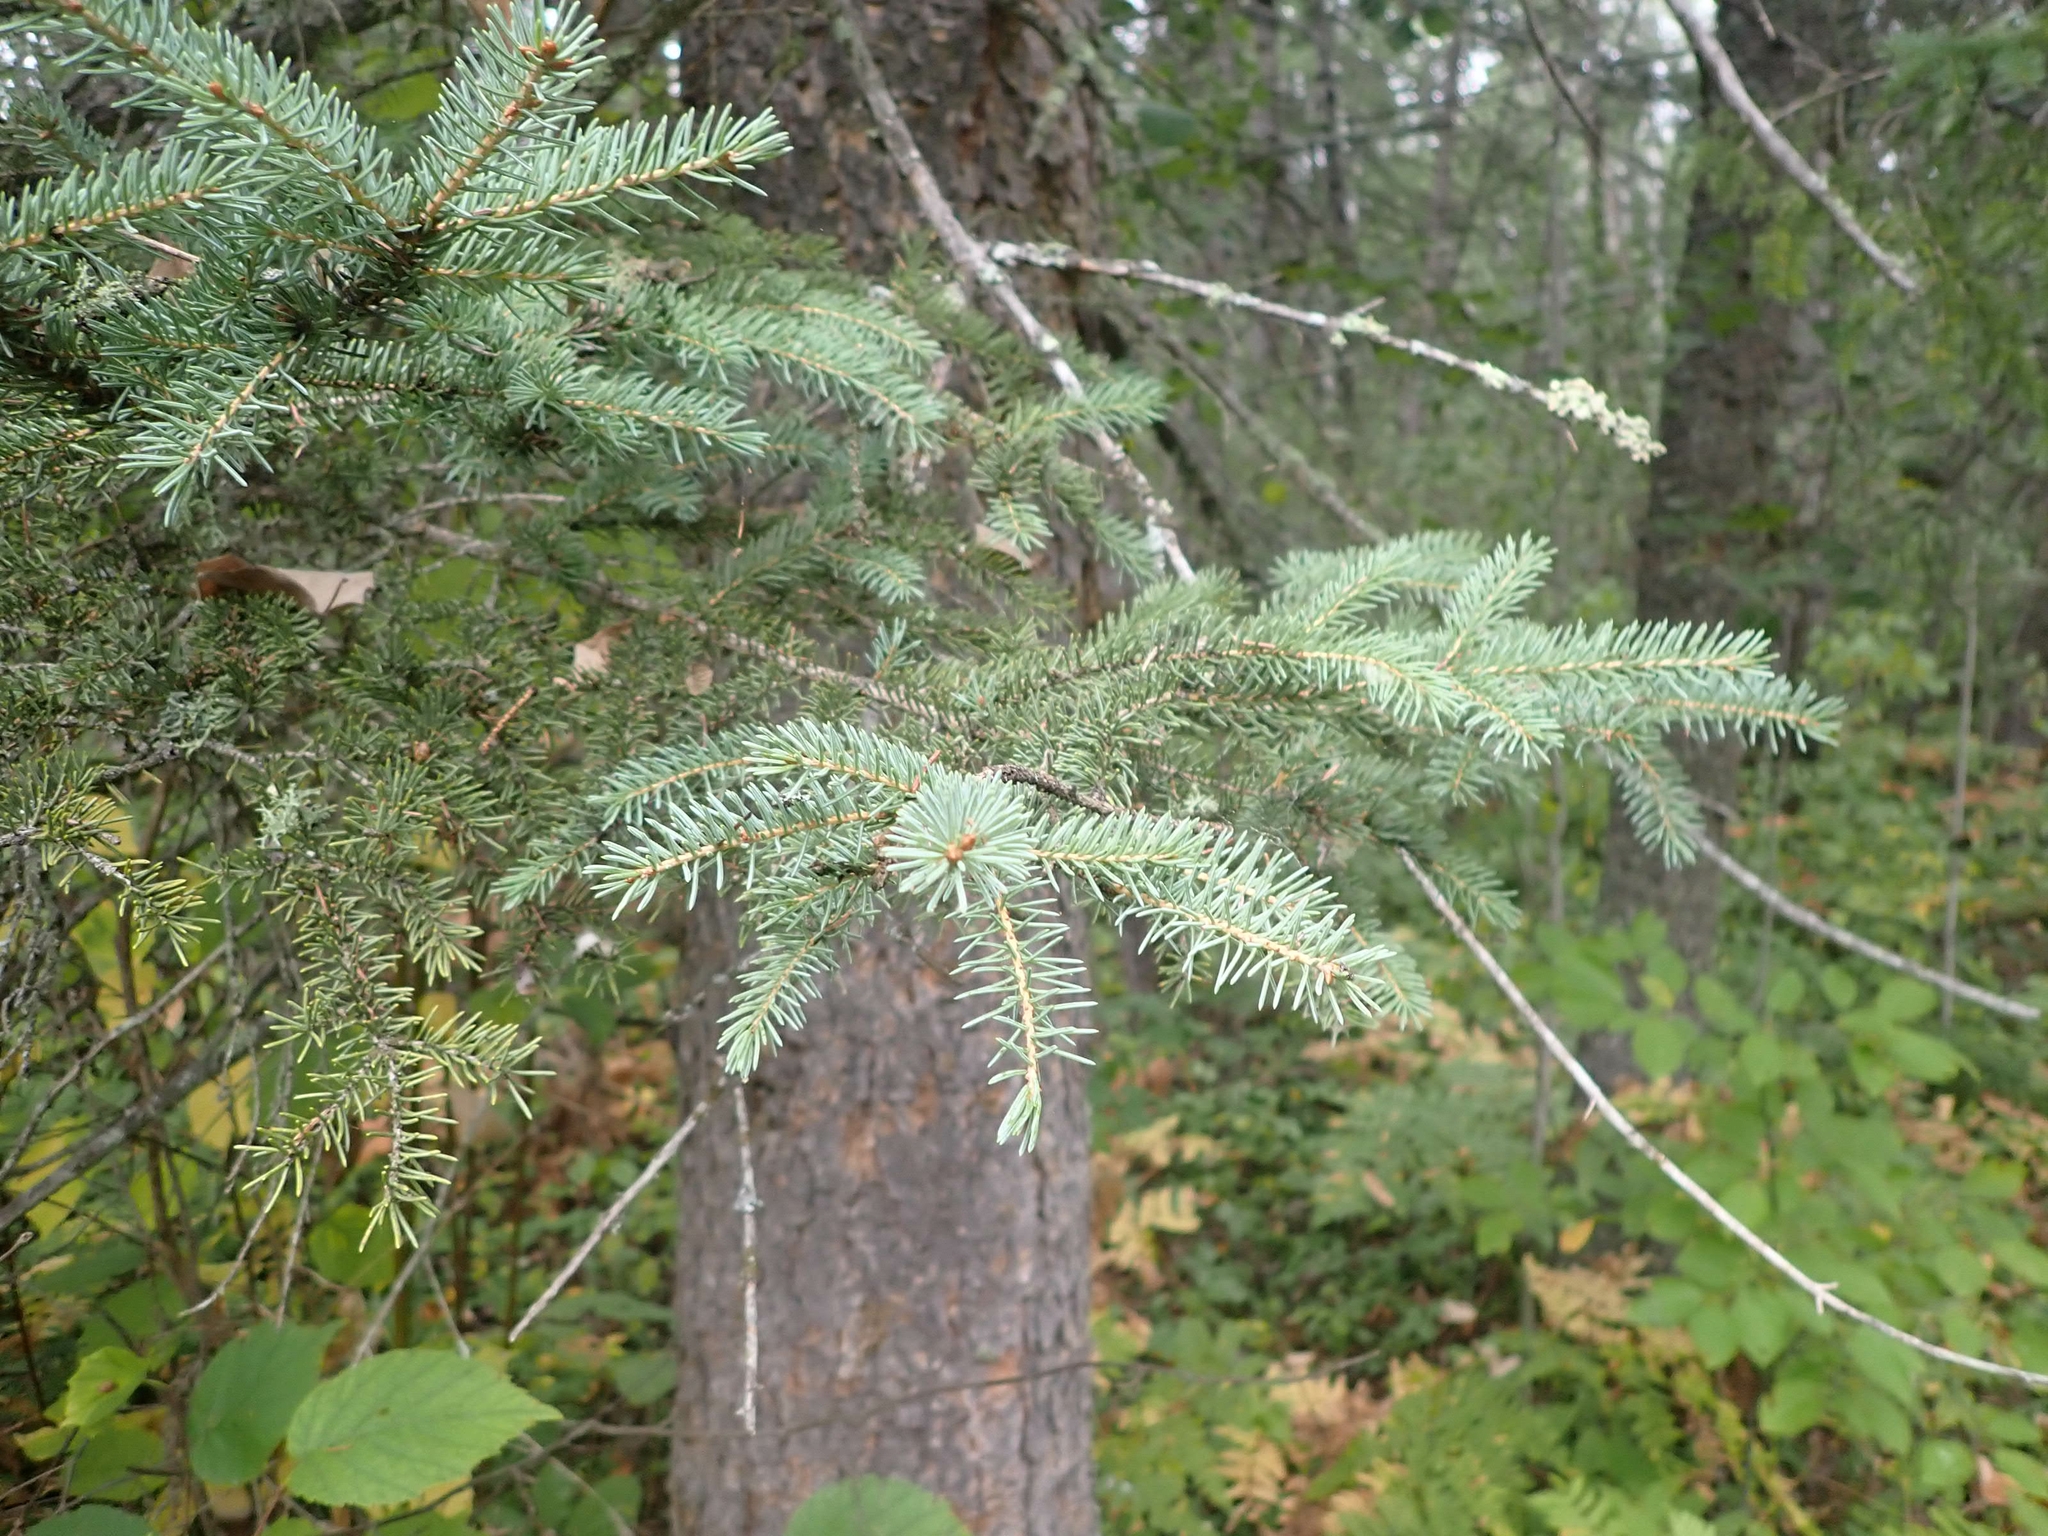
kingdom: Plantae
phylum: Tracheophyta
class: Pinopsida
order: Pinales
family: Pinaceae
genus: Picea
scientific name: Picea glauca
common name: White spruce
